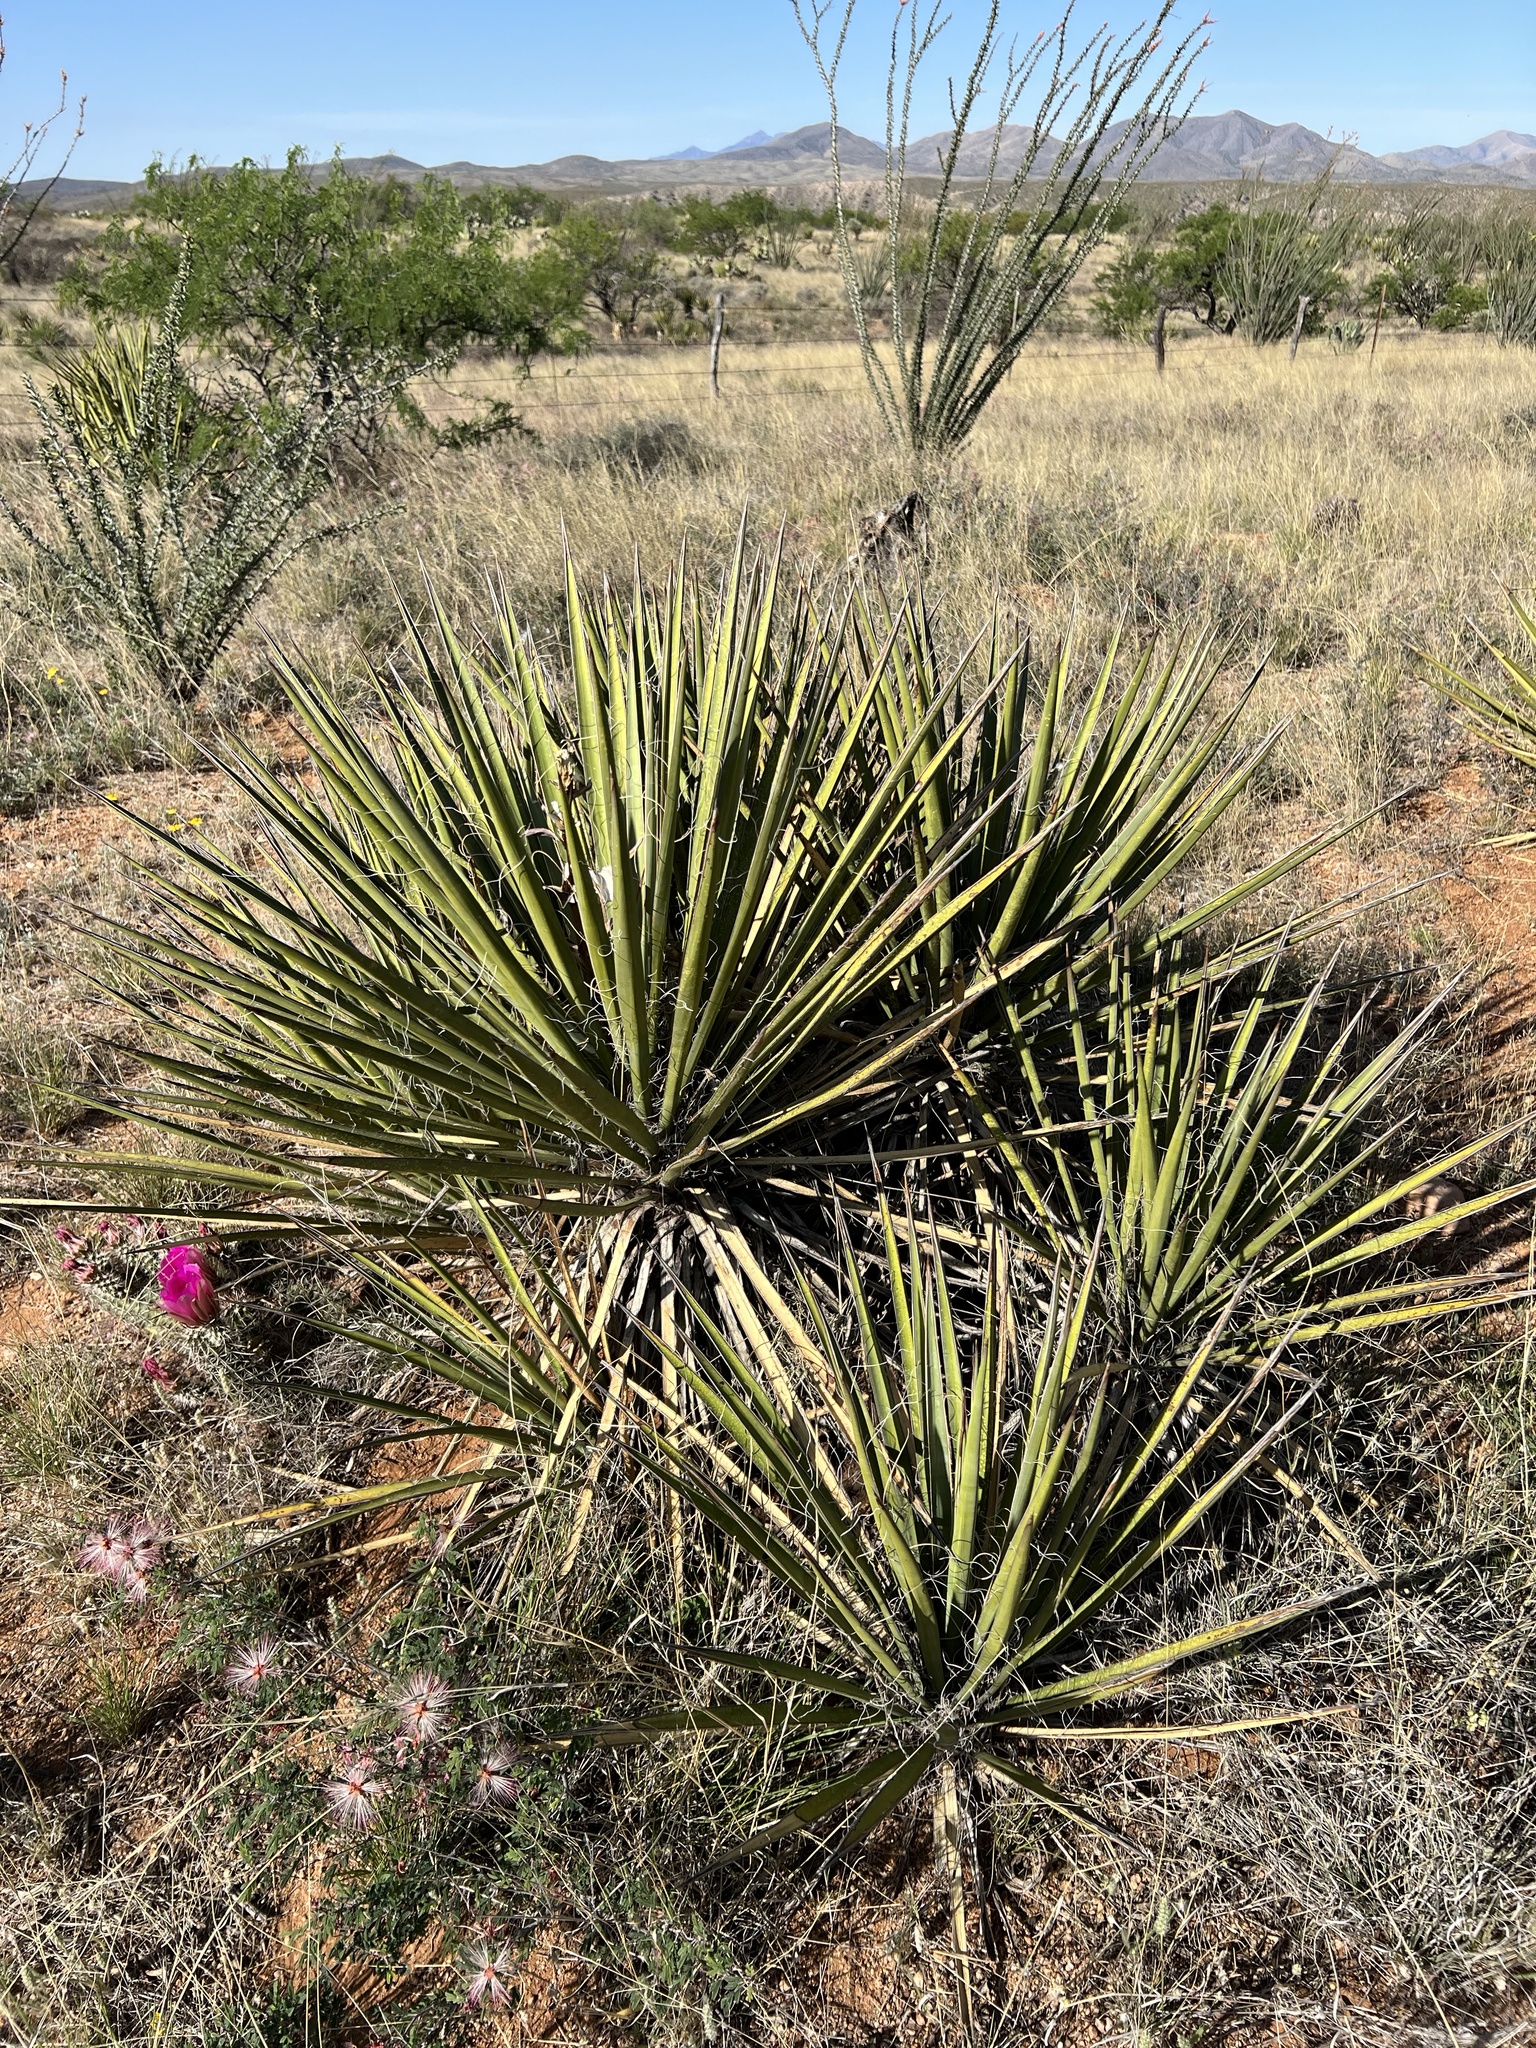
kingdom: Plantae
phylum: Tracheophyta
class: Liliopsida
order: Asparagales
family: Asparagaceae
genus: Yucca
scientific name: Yucca baccata
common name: Banana yucca
